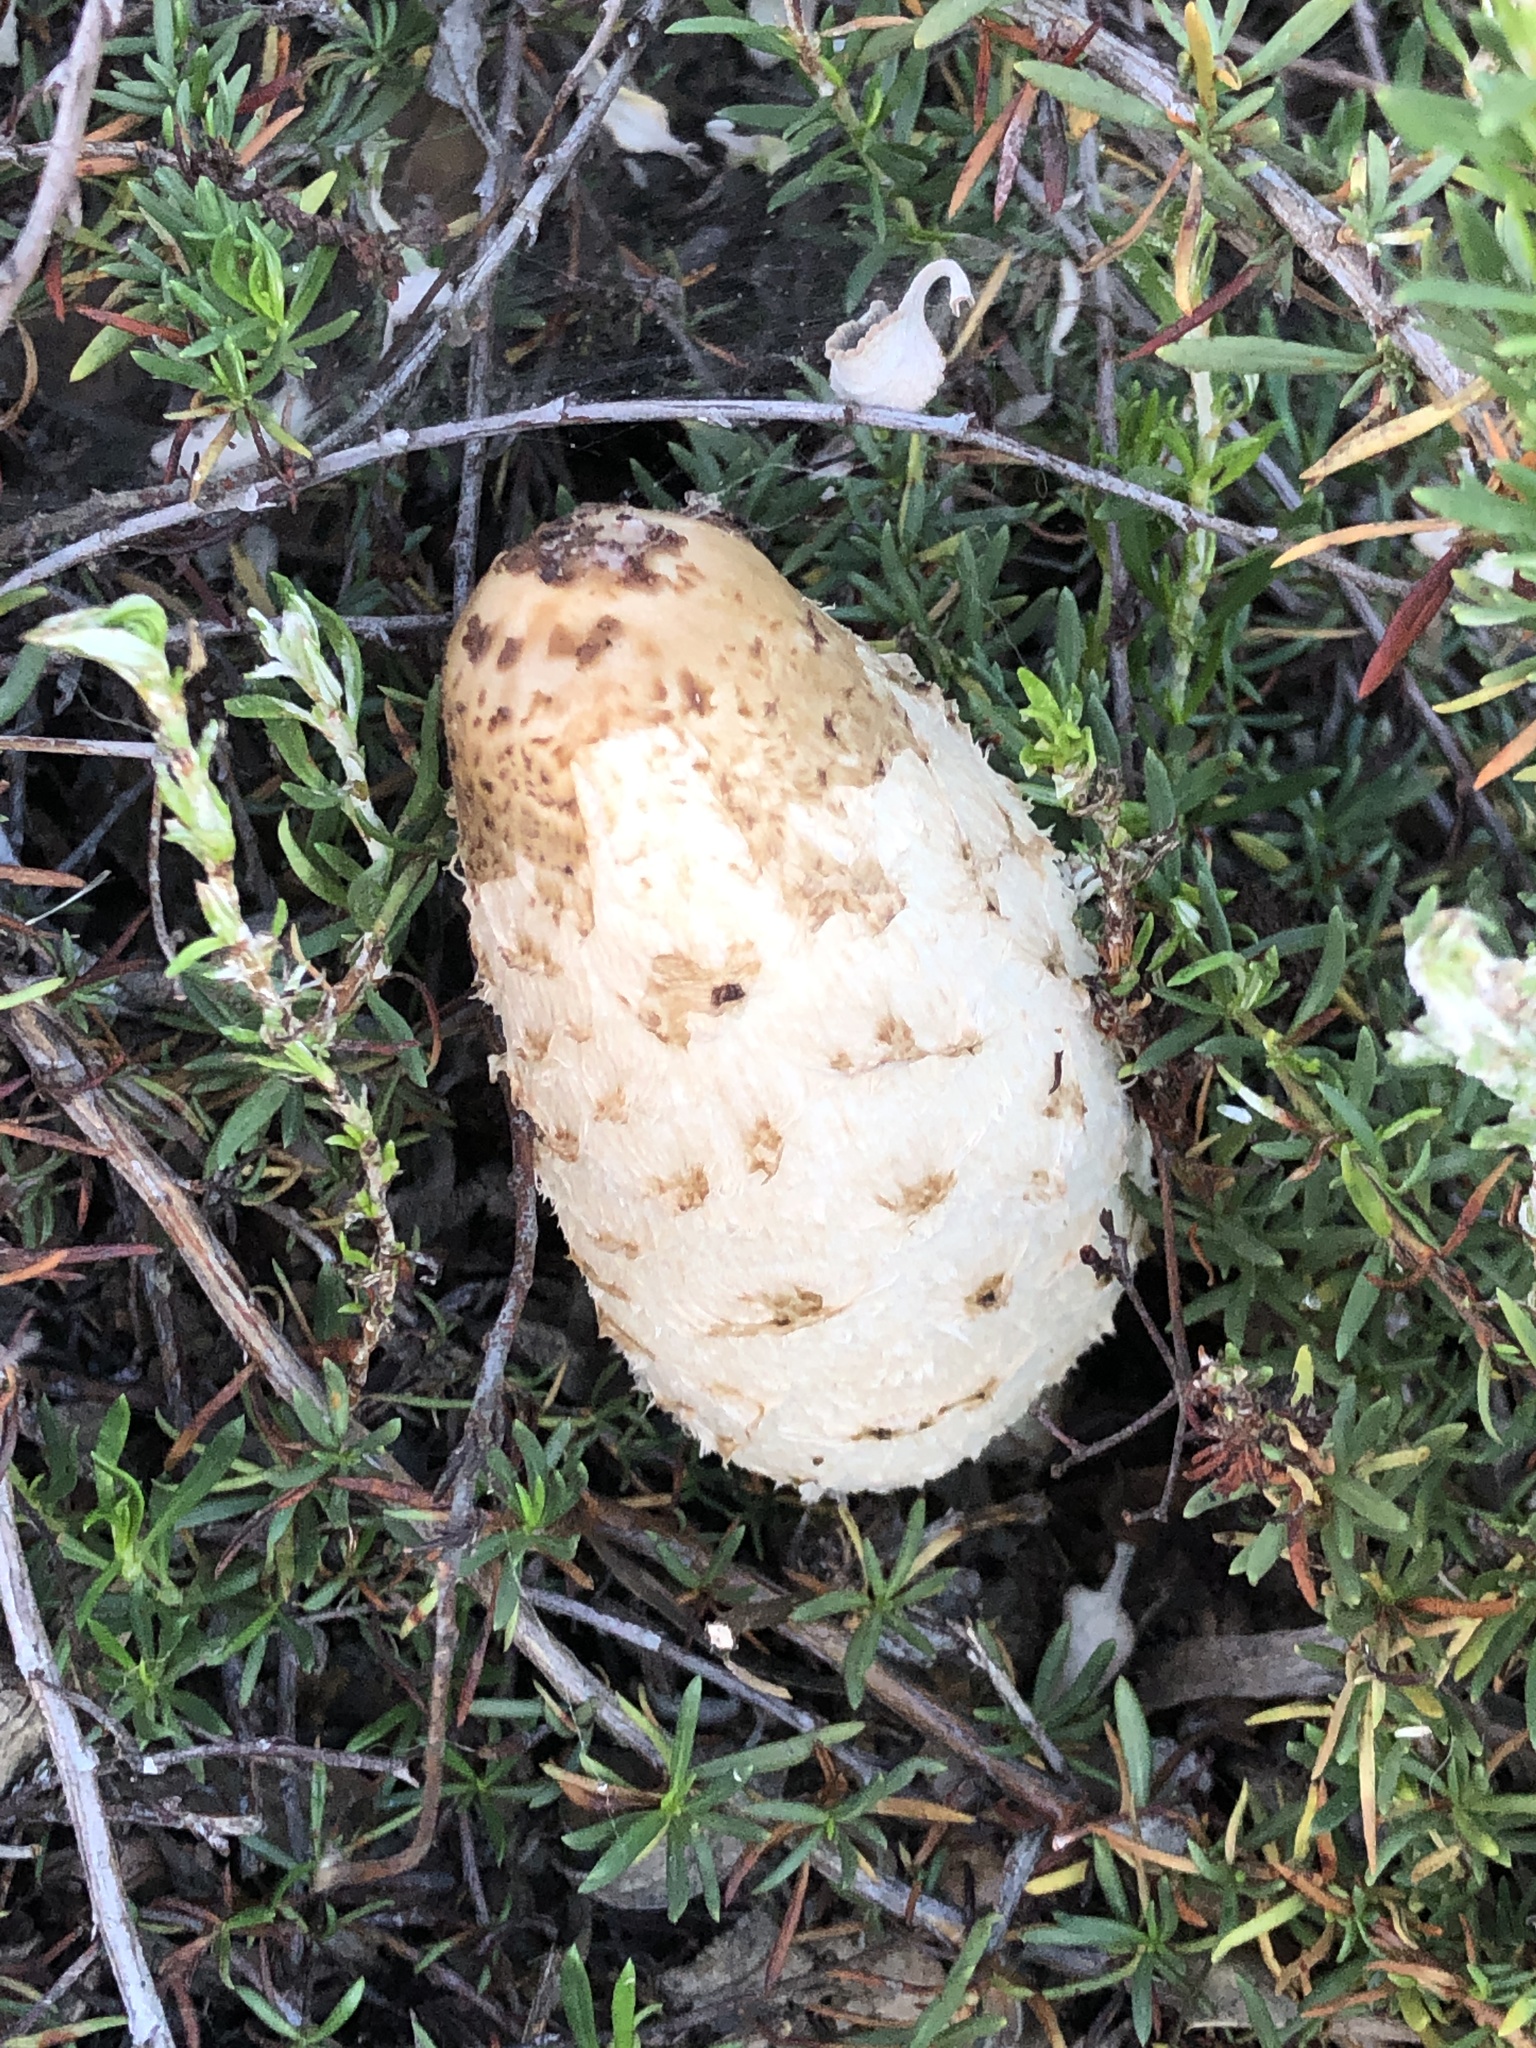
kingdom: Fungi
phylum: Basidiomycota
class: Agaricomycetes
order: Agaricales
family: Agaricaceae
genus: Coprinus
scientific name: Coprinus comatus
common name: Lawyer's wig
